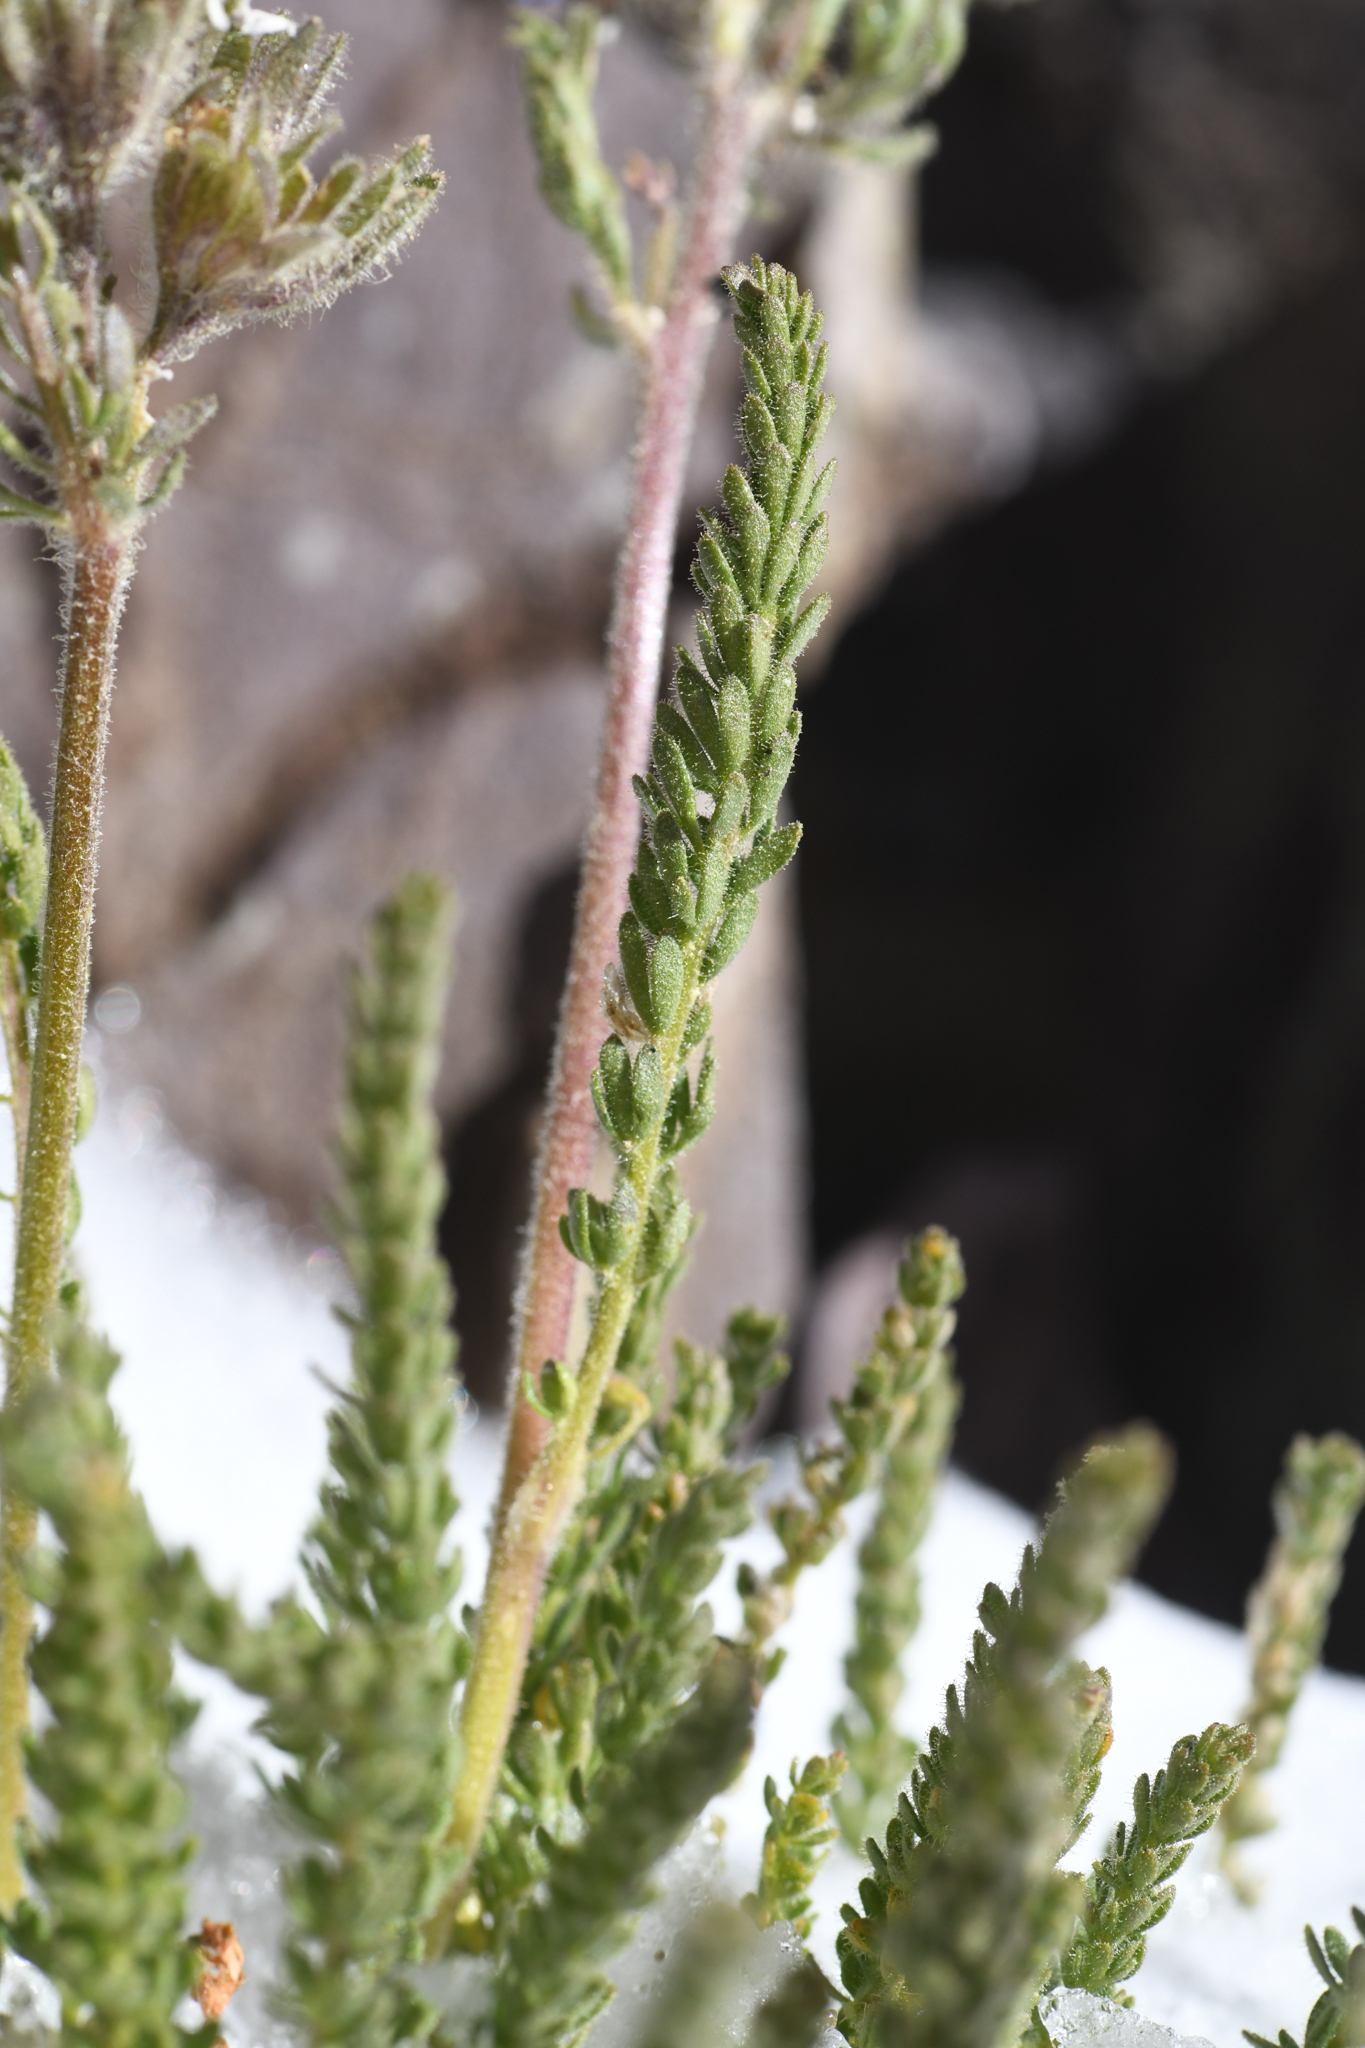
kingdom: Plantae
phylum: Tracheophyta
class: Magnoliopsida
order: Ericales
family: Polemoniaceae
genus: Polemonium
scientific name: Polemonium eximium
